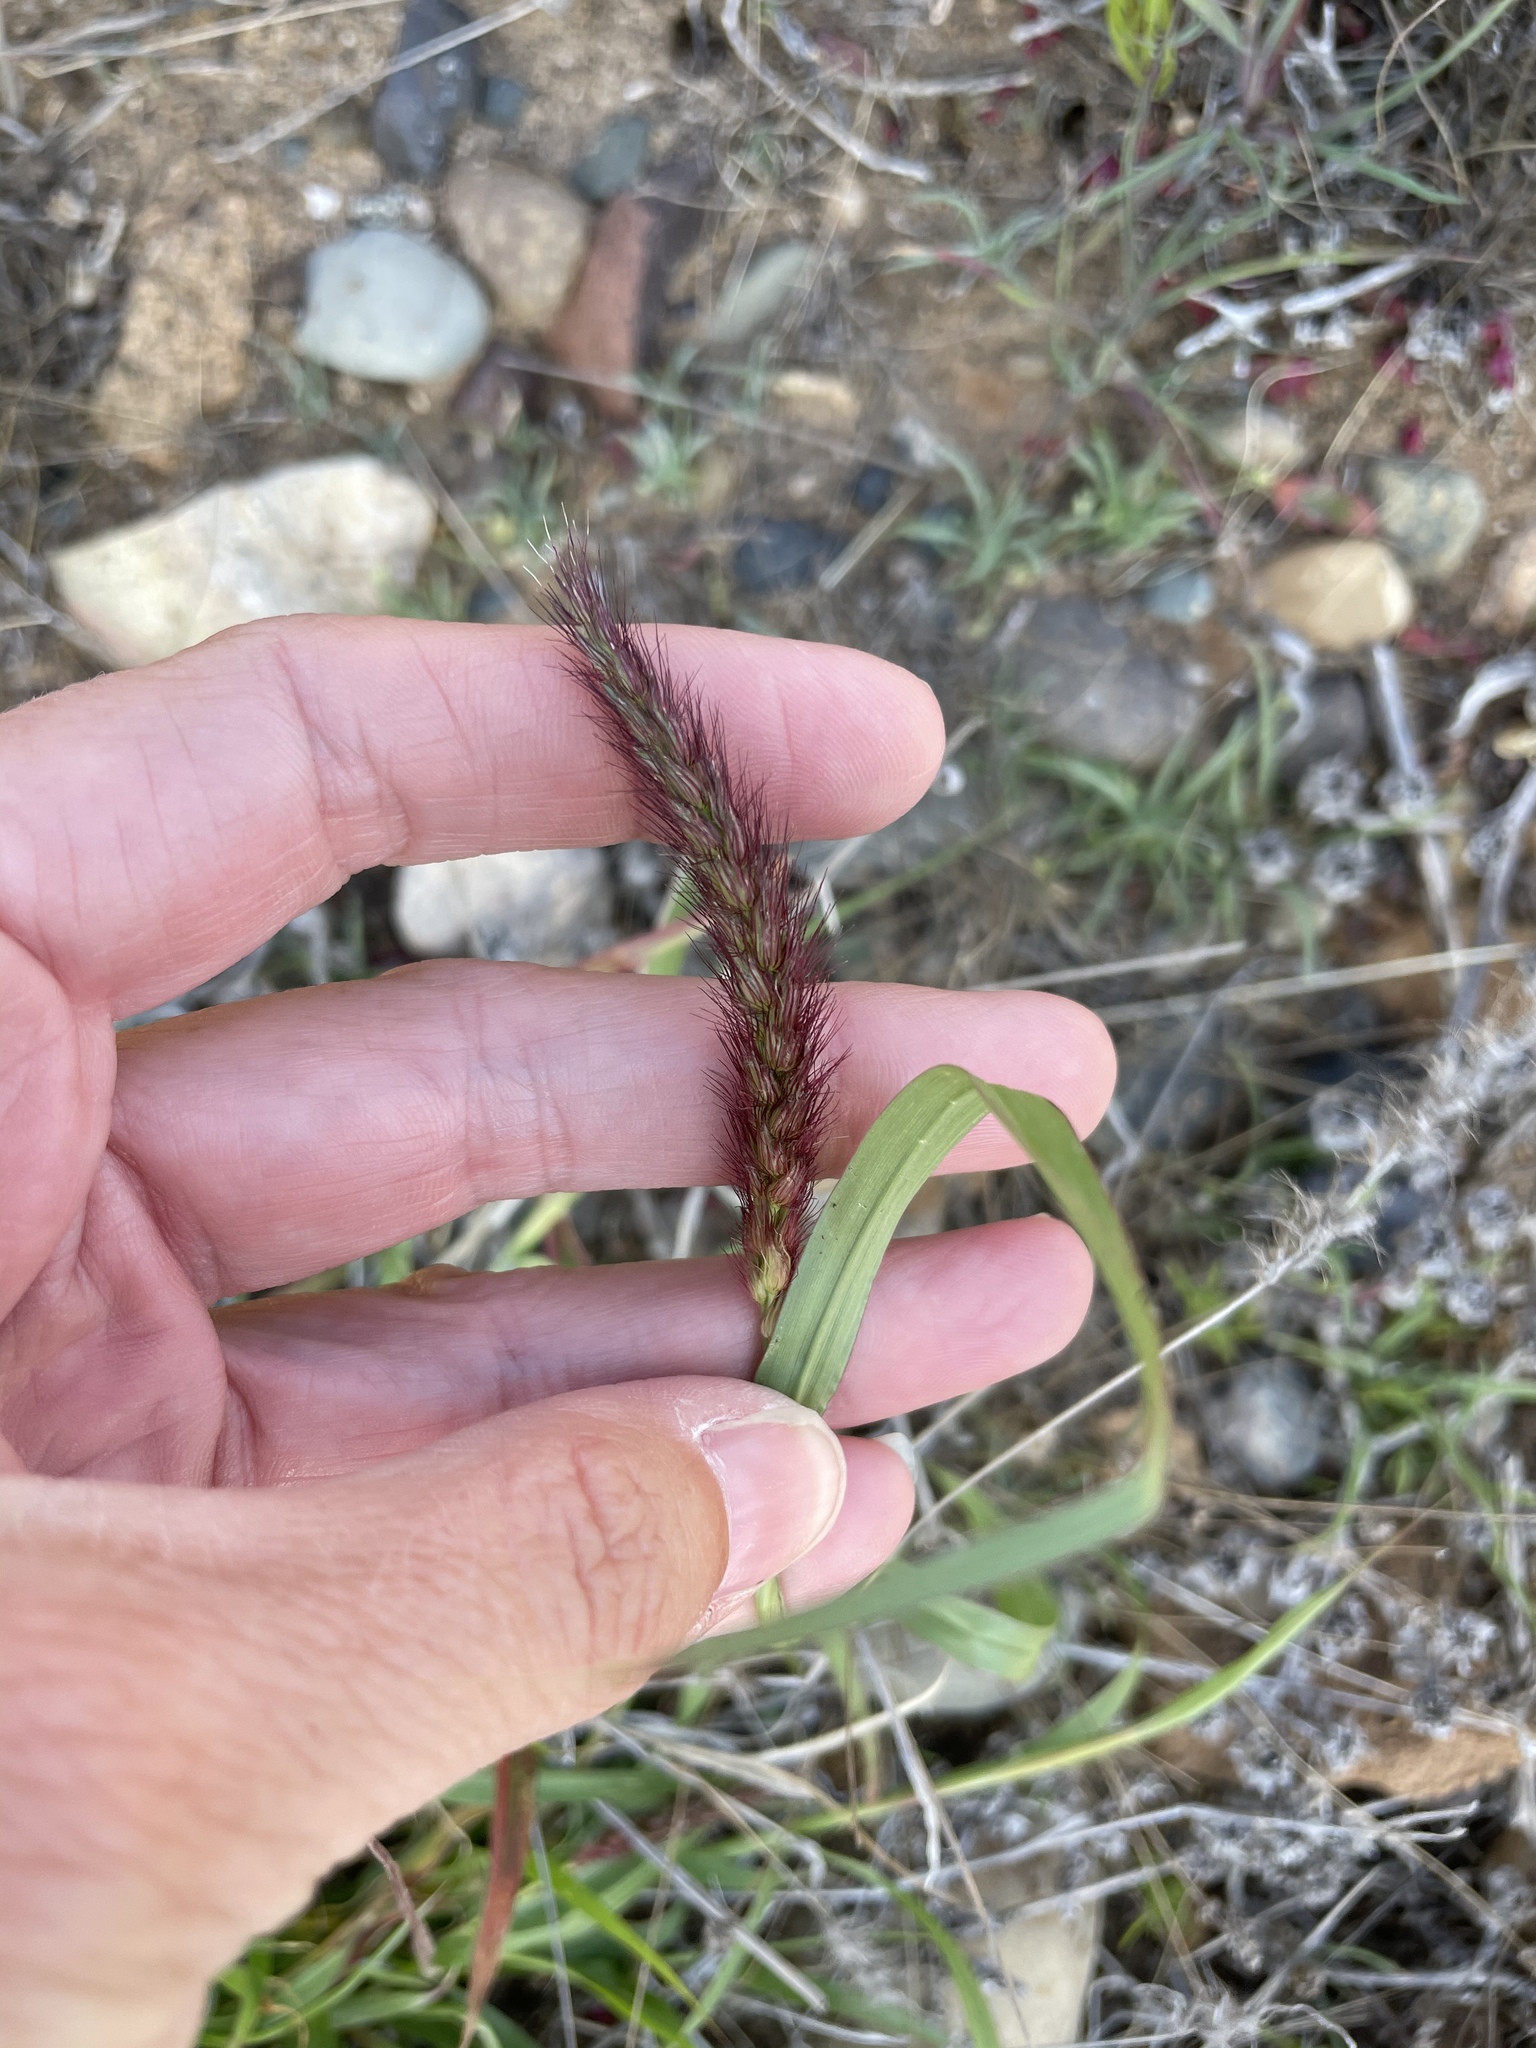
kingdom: Plantae
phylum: Tracheophyta
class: Liliopsida
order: Poales
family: Poaceae
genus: Cenchrus
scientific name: Cenchrus ciliaris
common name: Buffelgrass
